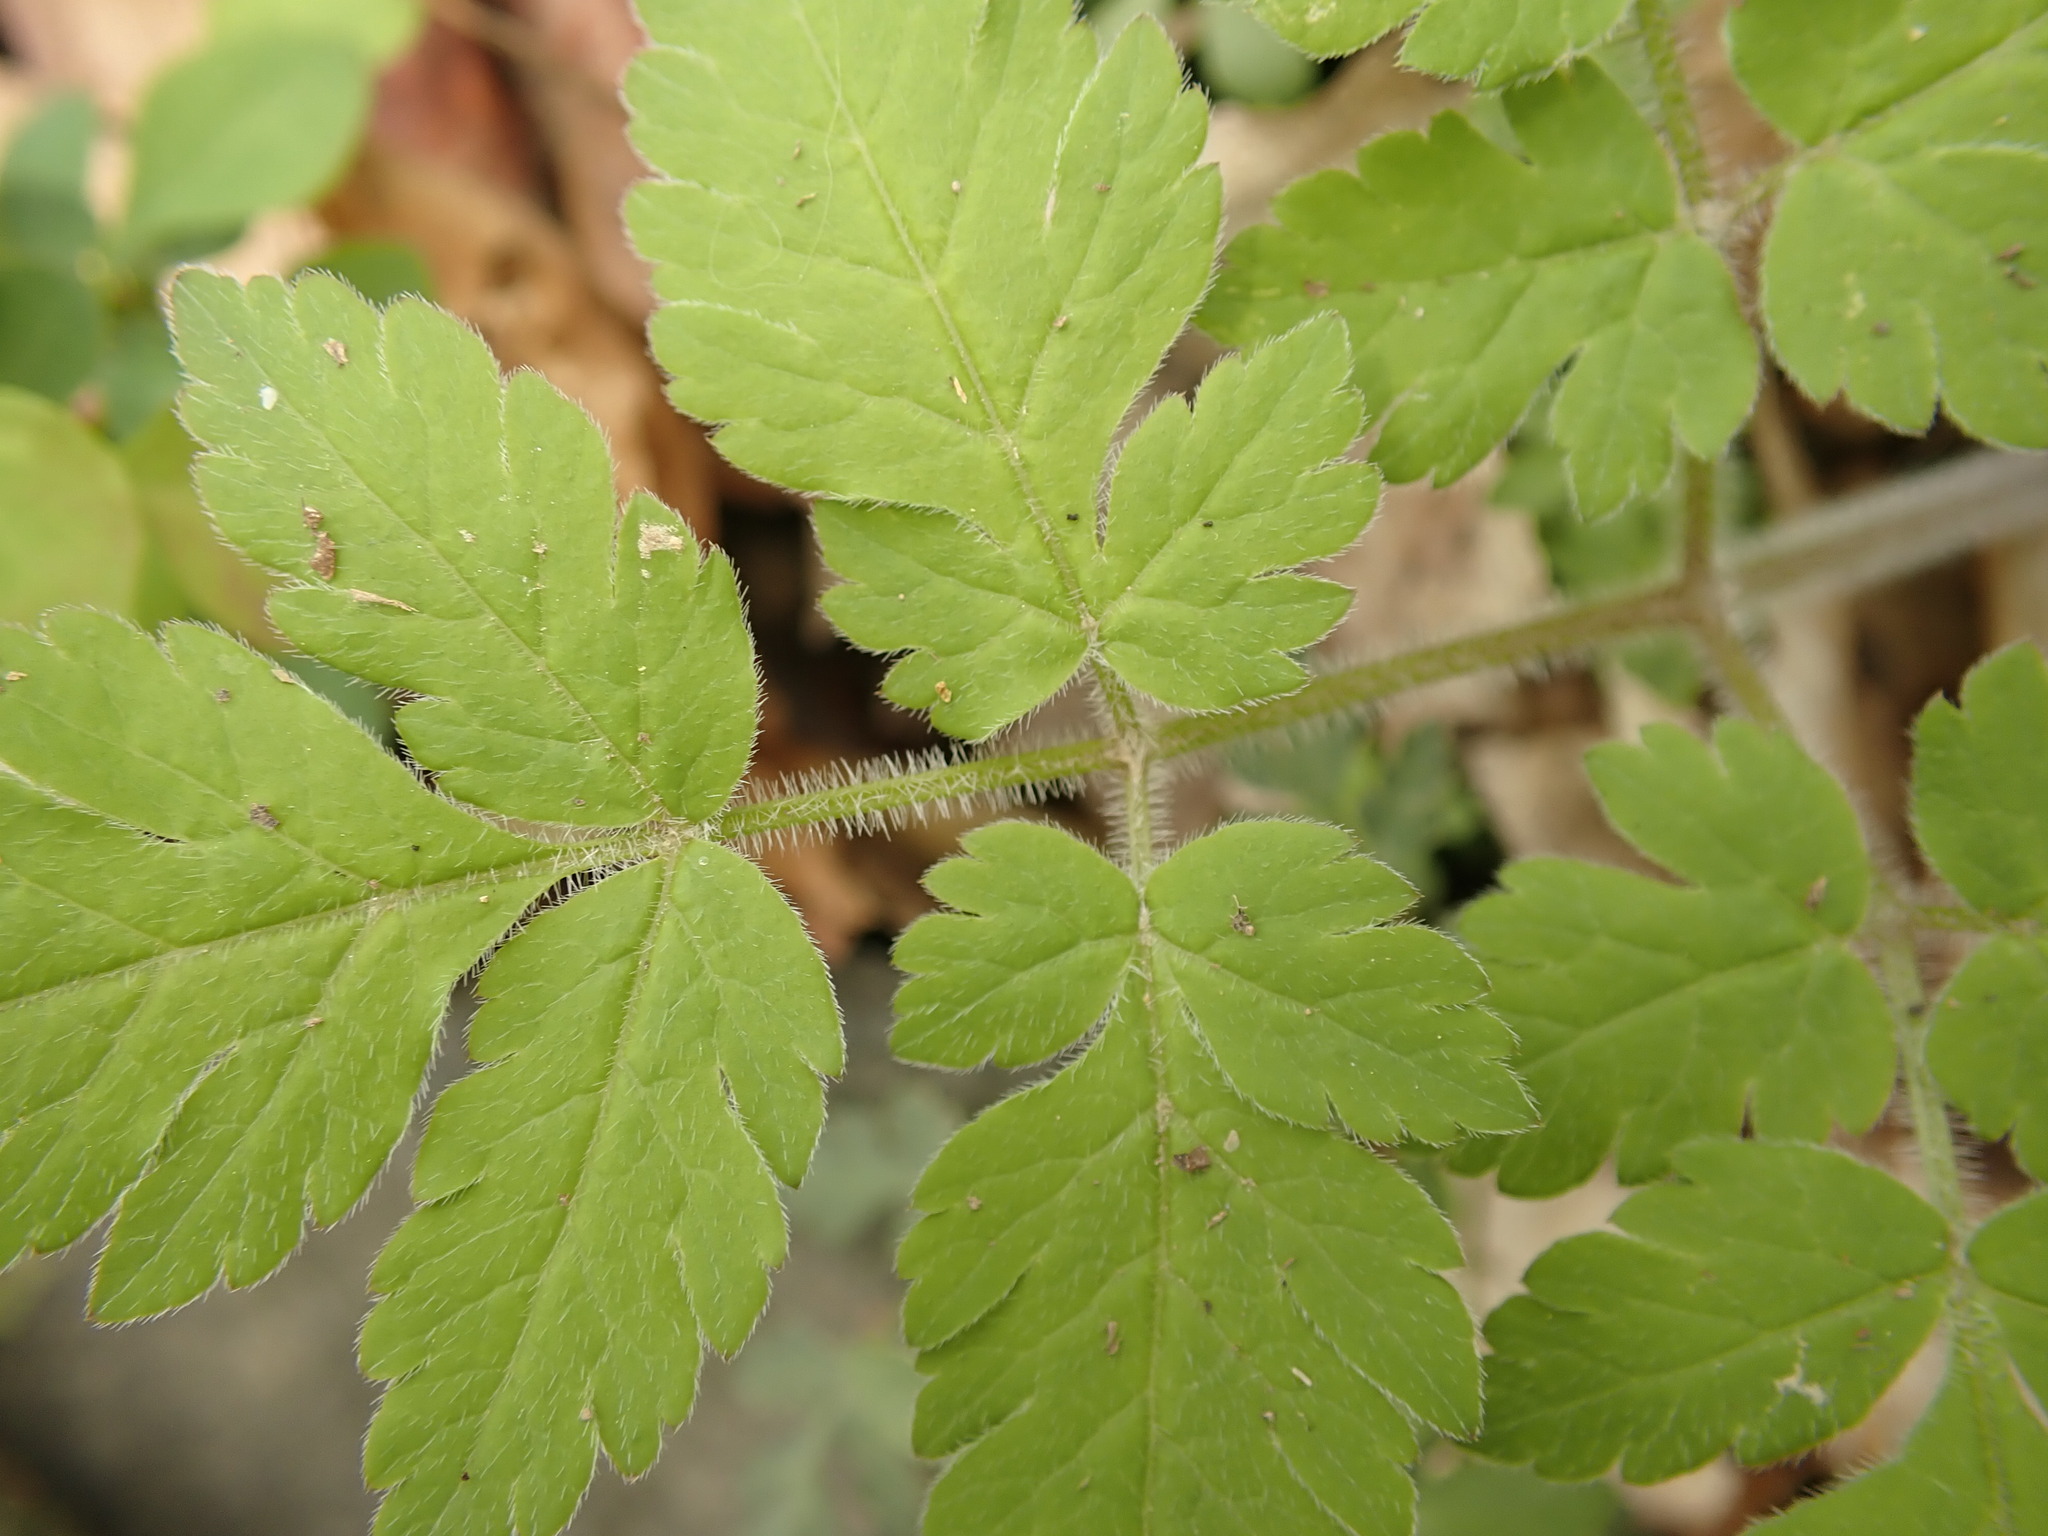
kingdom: Plantae
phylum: Tracheophyta
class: Magnoliopsida
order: Apiales
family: Apiaceae
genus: Osmorhiza
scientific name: Osmorhiza claytonii
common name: Hairy sweet cicely
